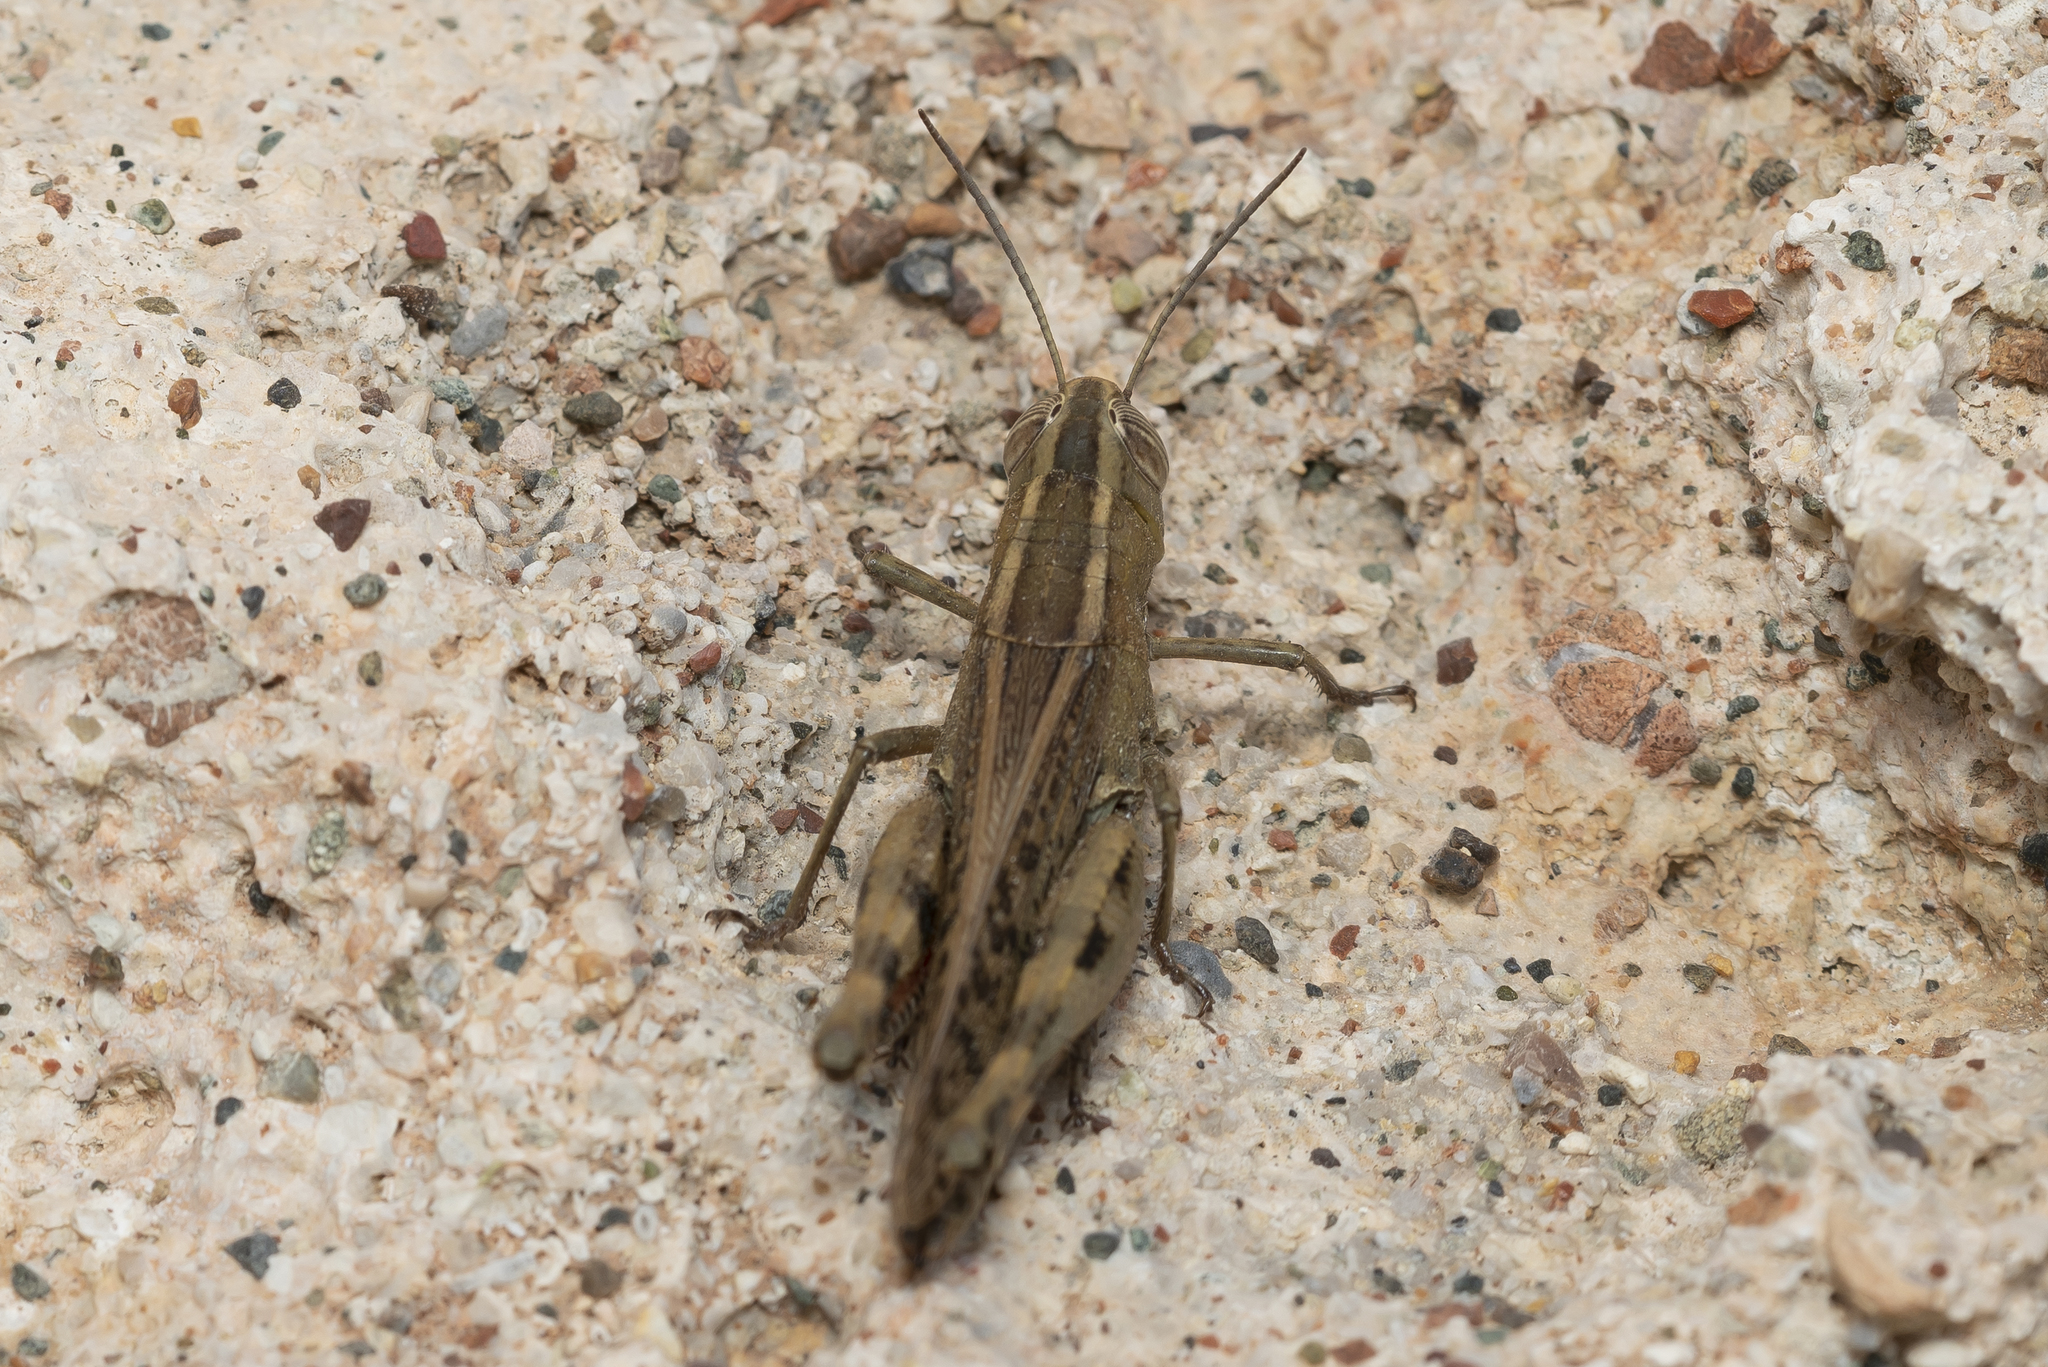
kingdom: Animalia
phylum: Arthropoda
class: Insecta
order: Orthoptera
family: Acrididae
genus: Heteracris
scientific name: Heteracris littoralis
